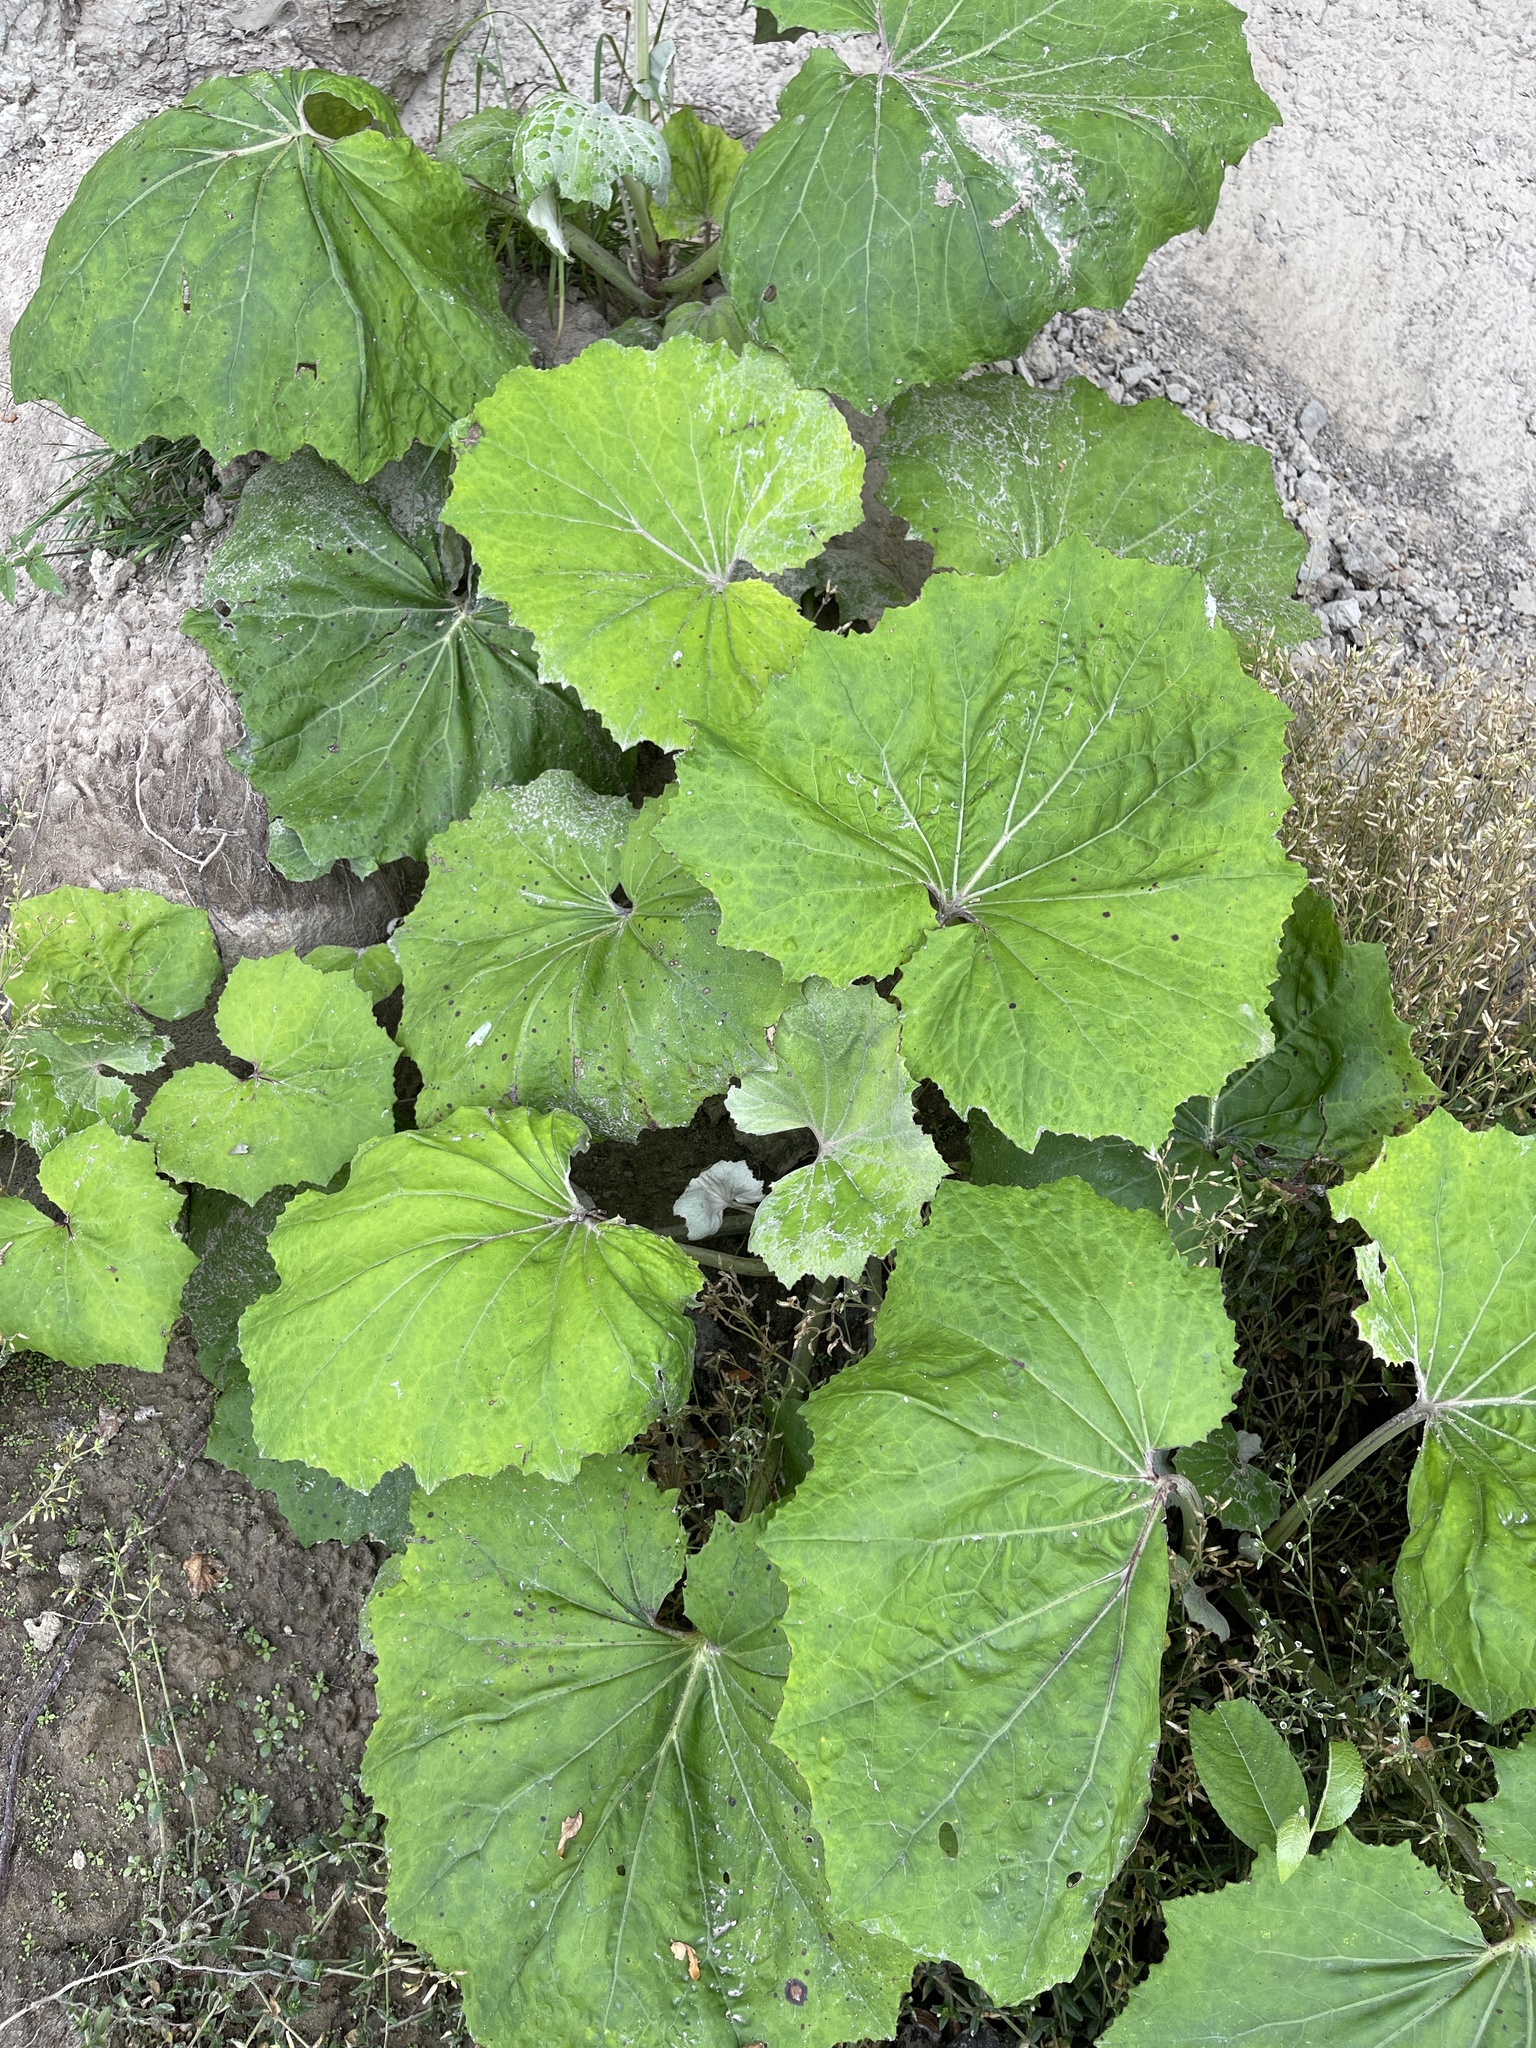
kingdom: Plantae
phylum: Tracheophyta
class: Magnoliopsida
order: Asterales
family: Asteraceae
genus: Tussilago
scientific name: Tussilago farfara
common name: Coltsfoot
